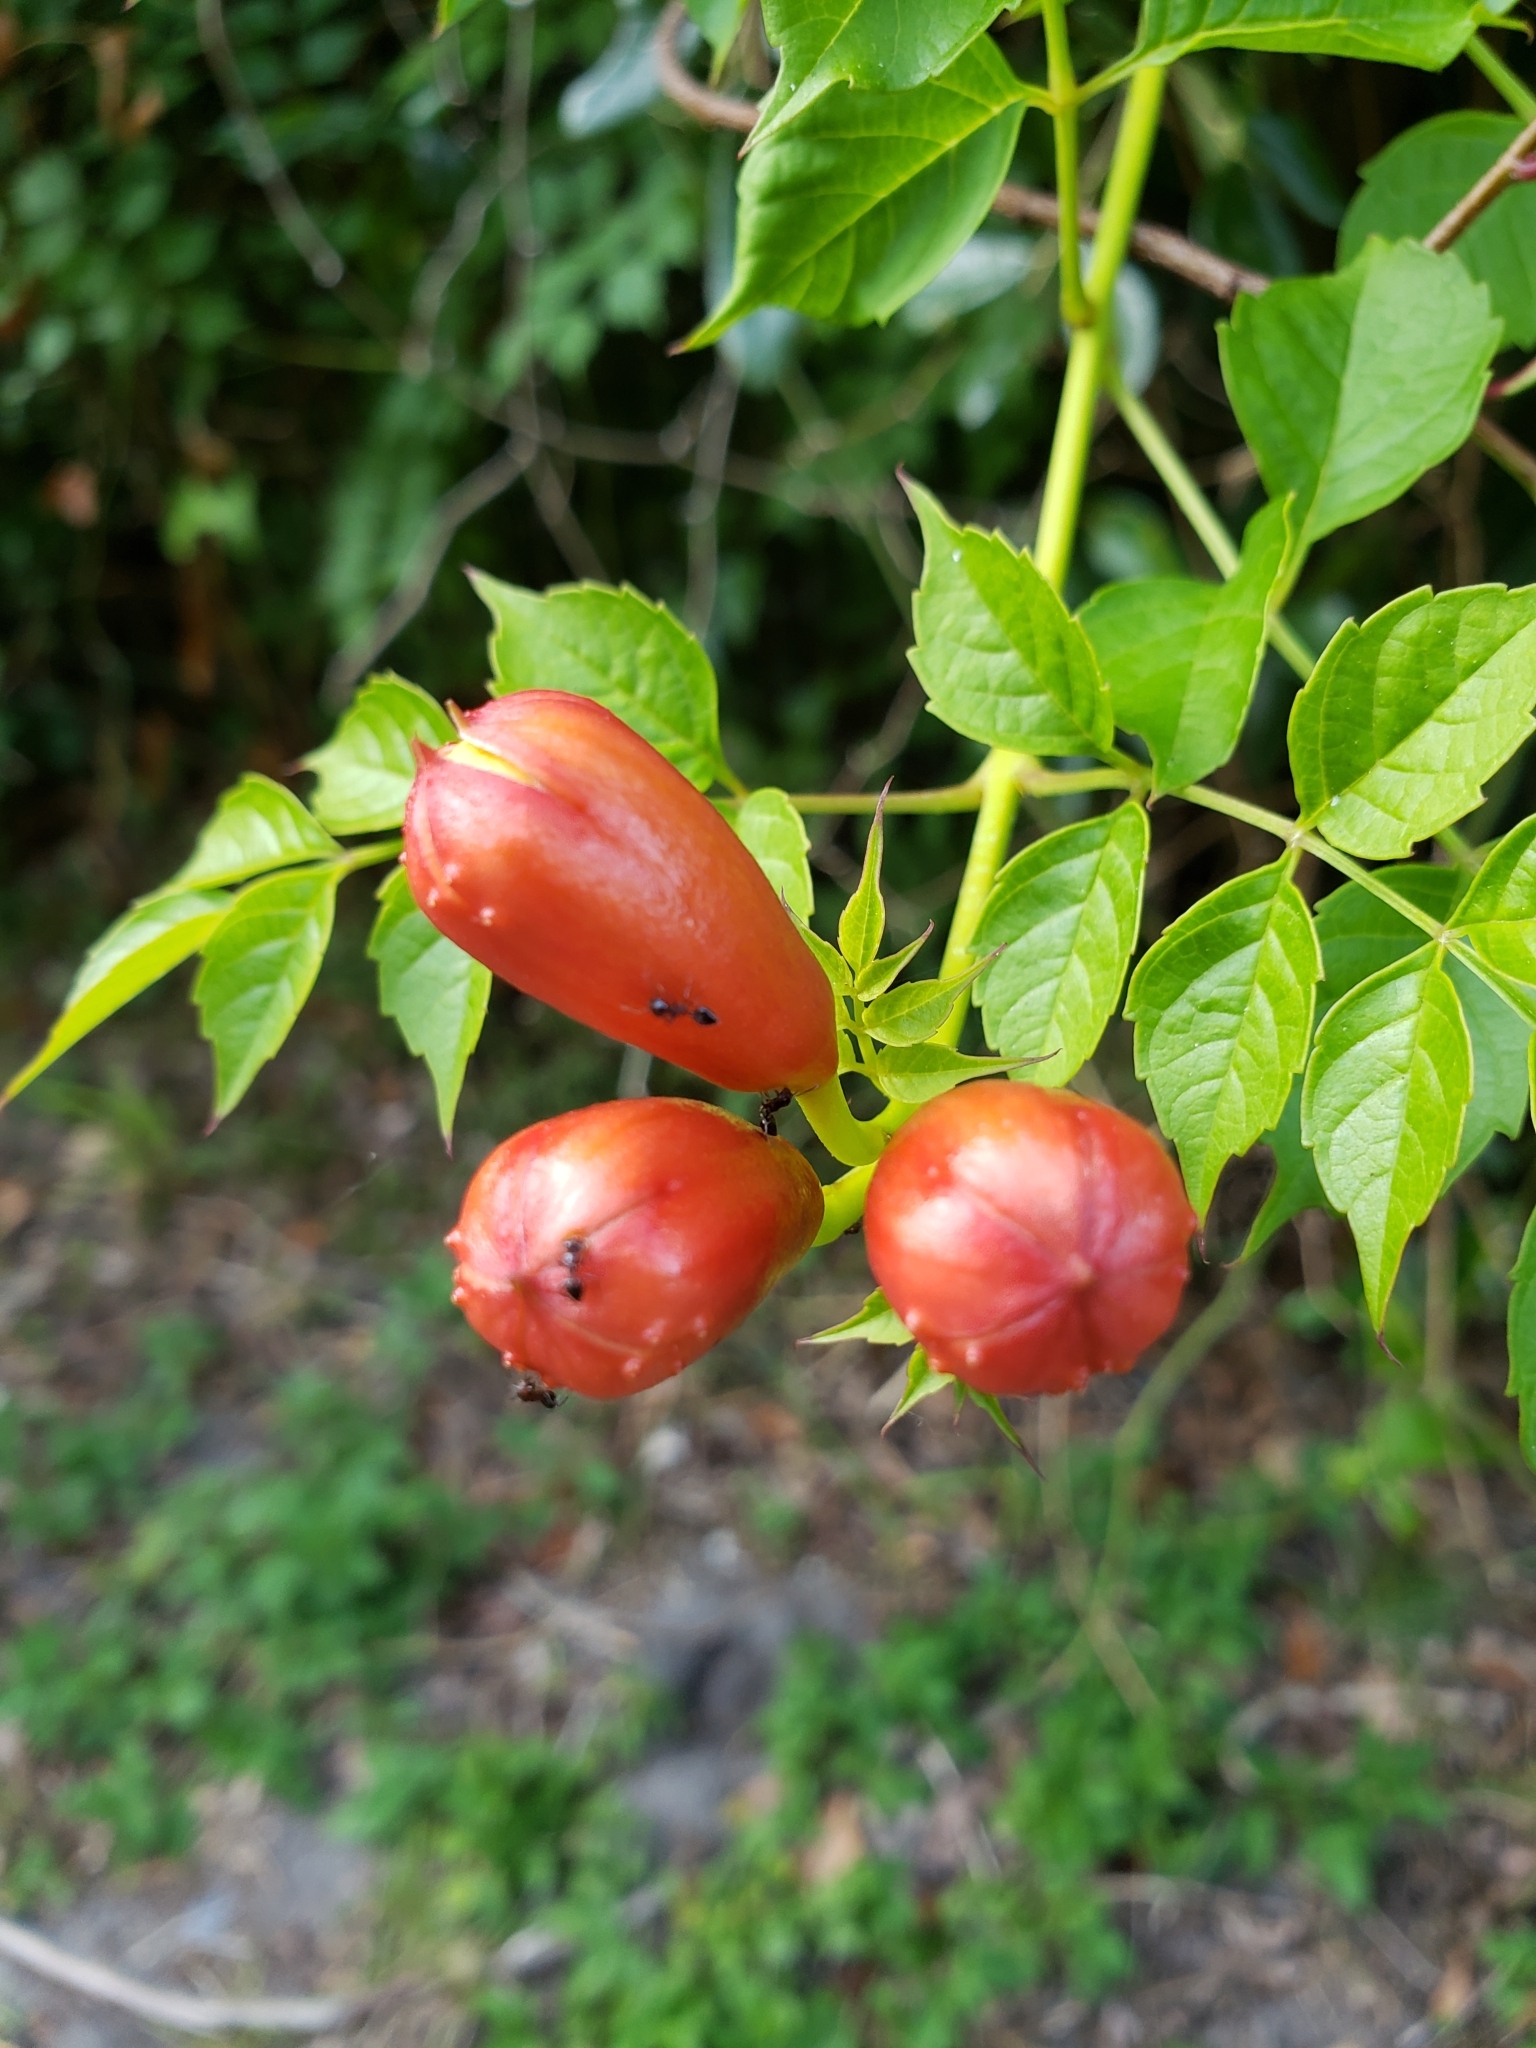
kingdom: Plantae
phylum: Tracheophyta
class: Magnoliopsida
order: Lamiales
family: Bignoniaceae
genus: Campsis
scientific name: Campsis radicans
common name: Trumpet-creeper
